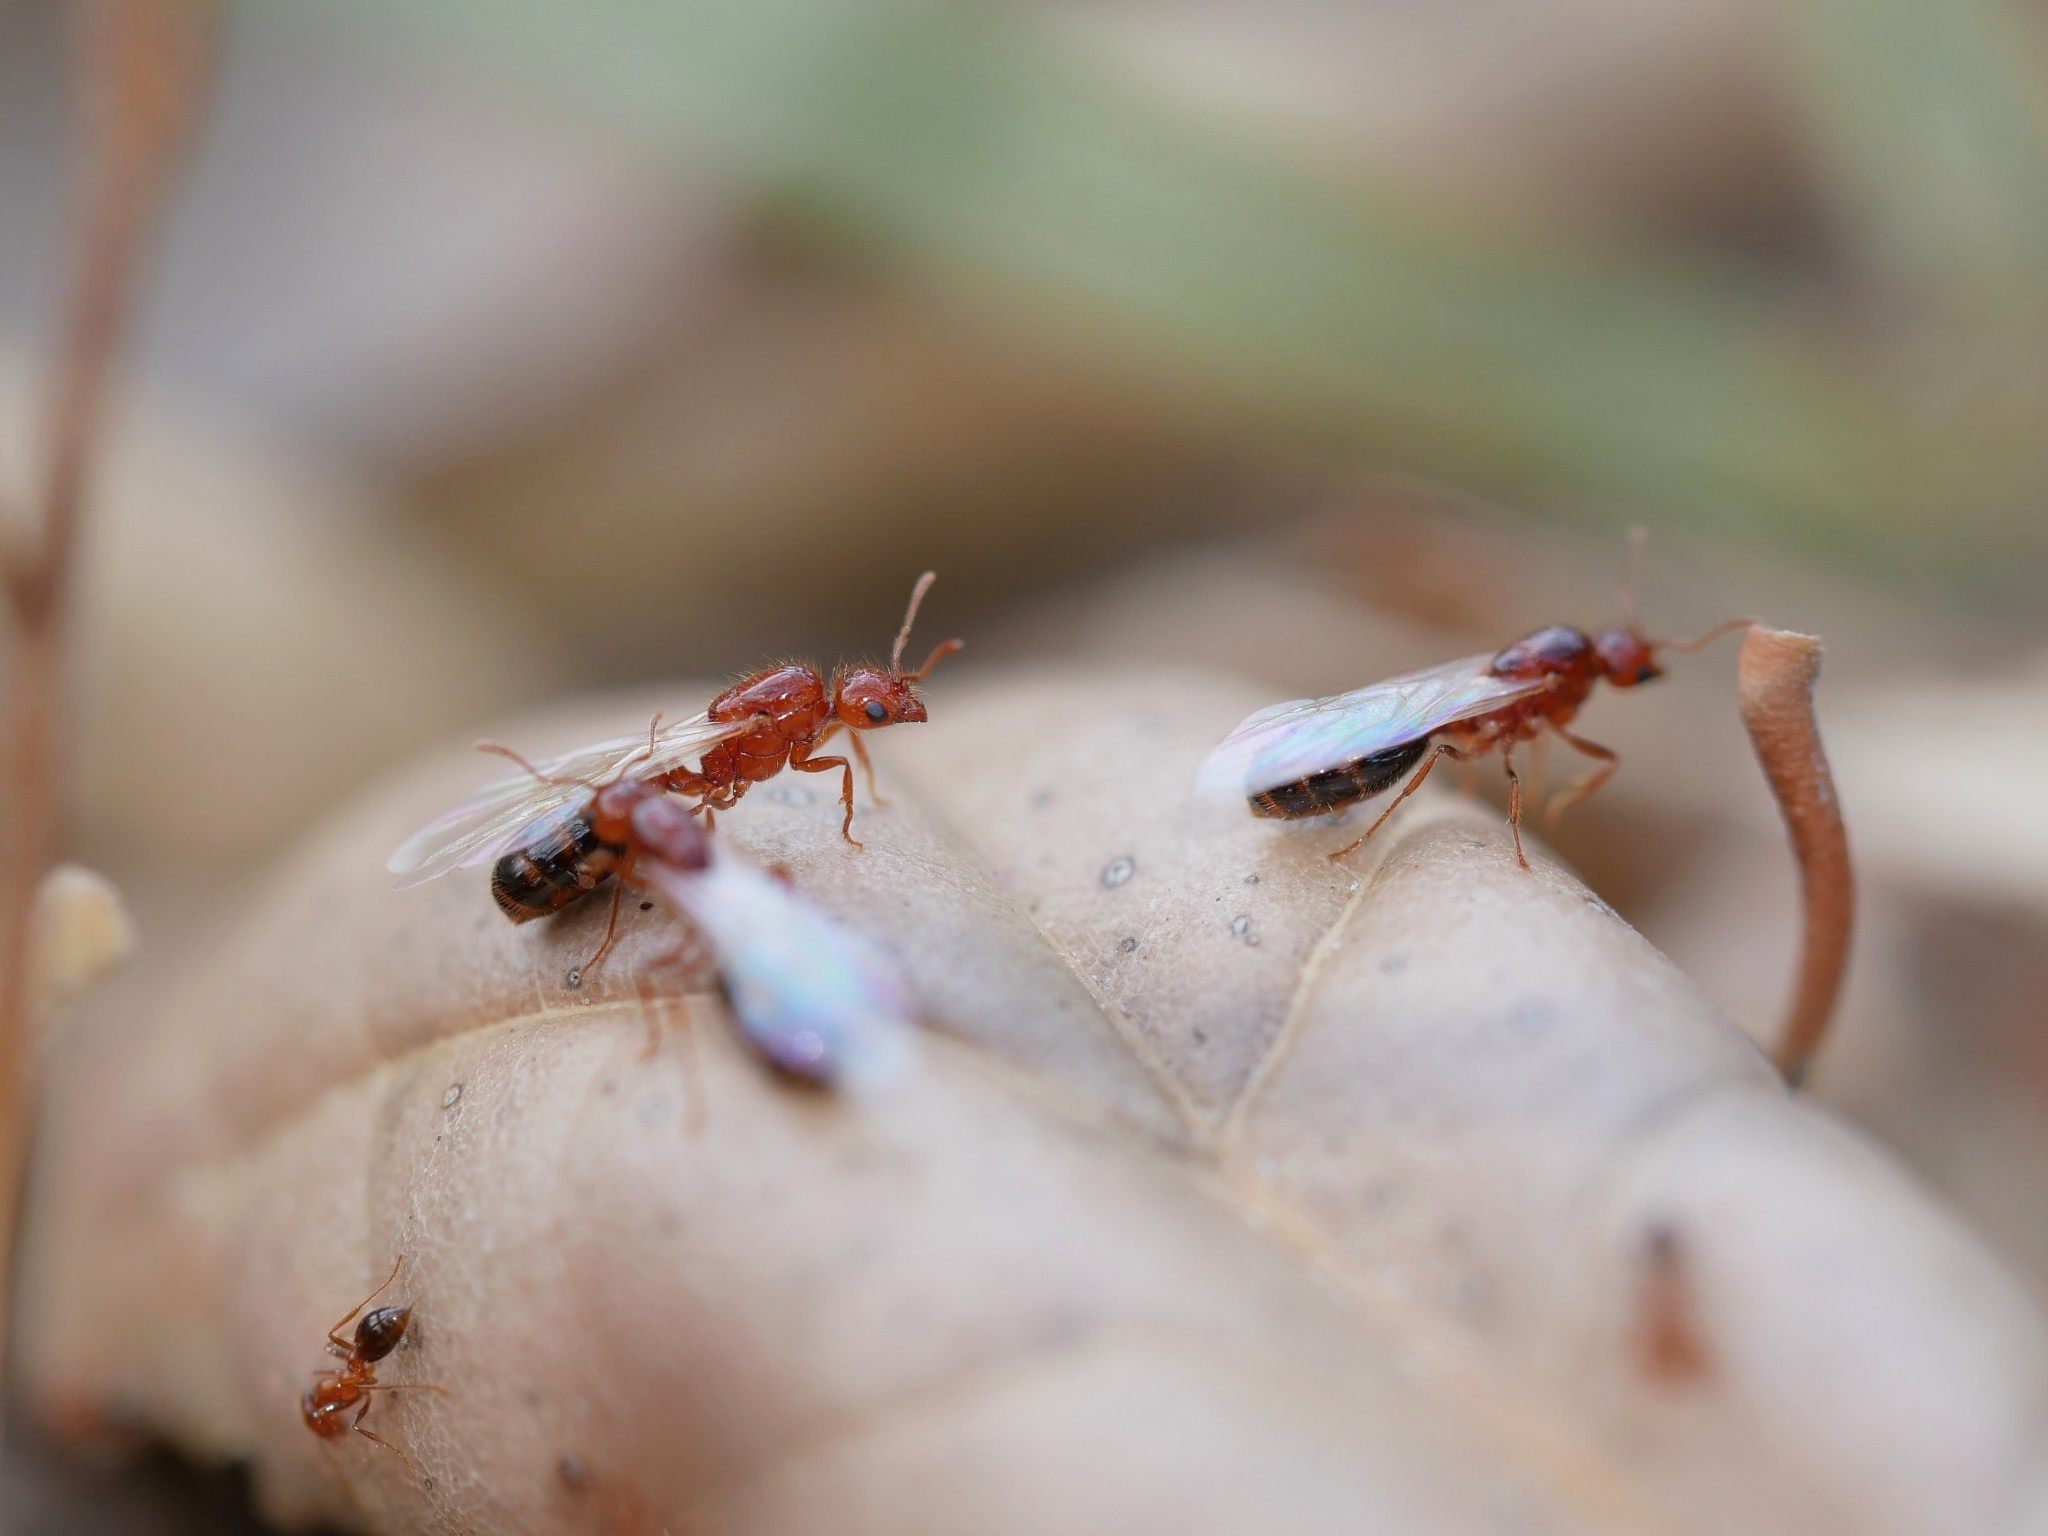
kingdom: Animalia
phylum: Arthropoda
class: Insecta
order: Hymenoptera
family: Formicidae
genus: Solenopsis
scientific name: Solenopsis xyloni
